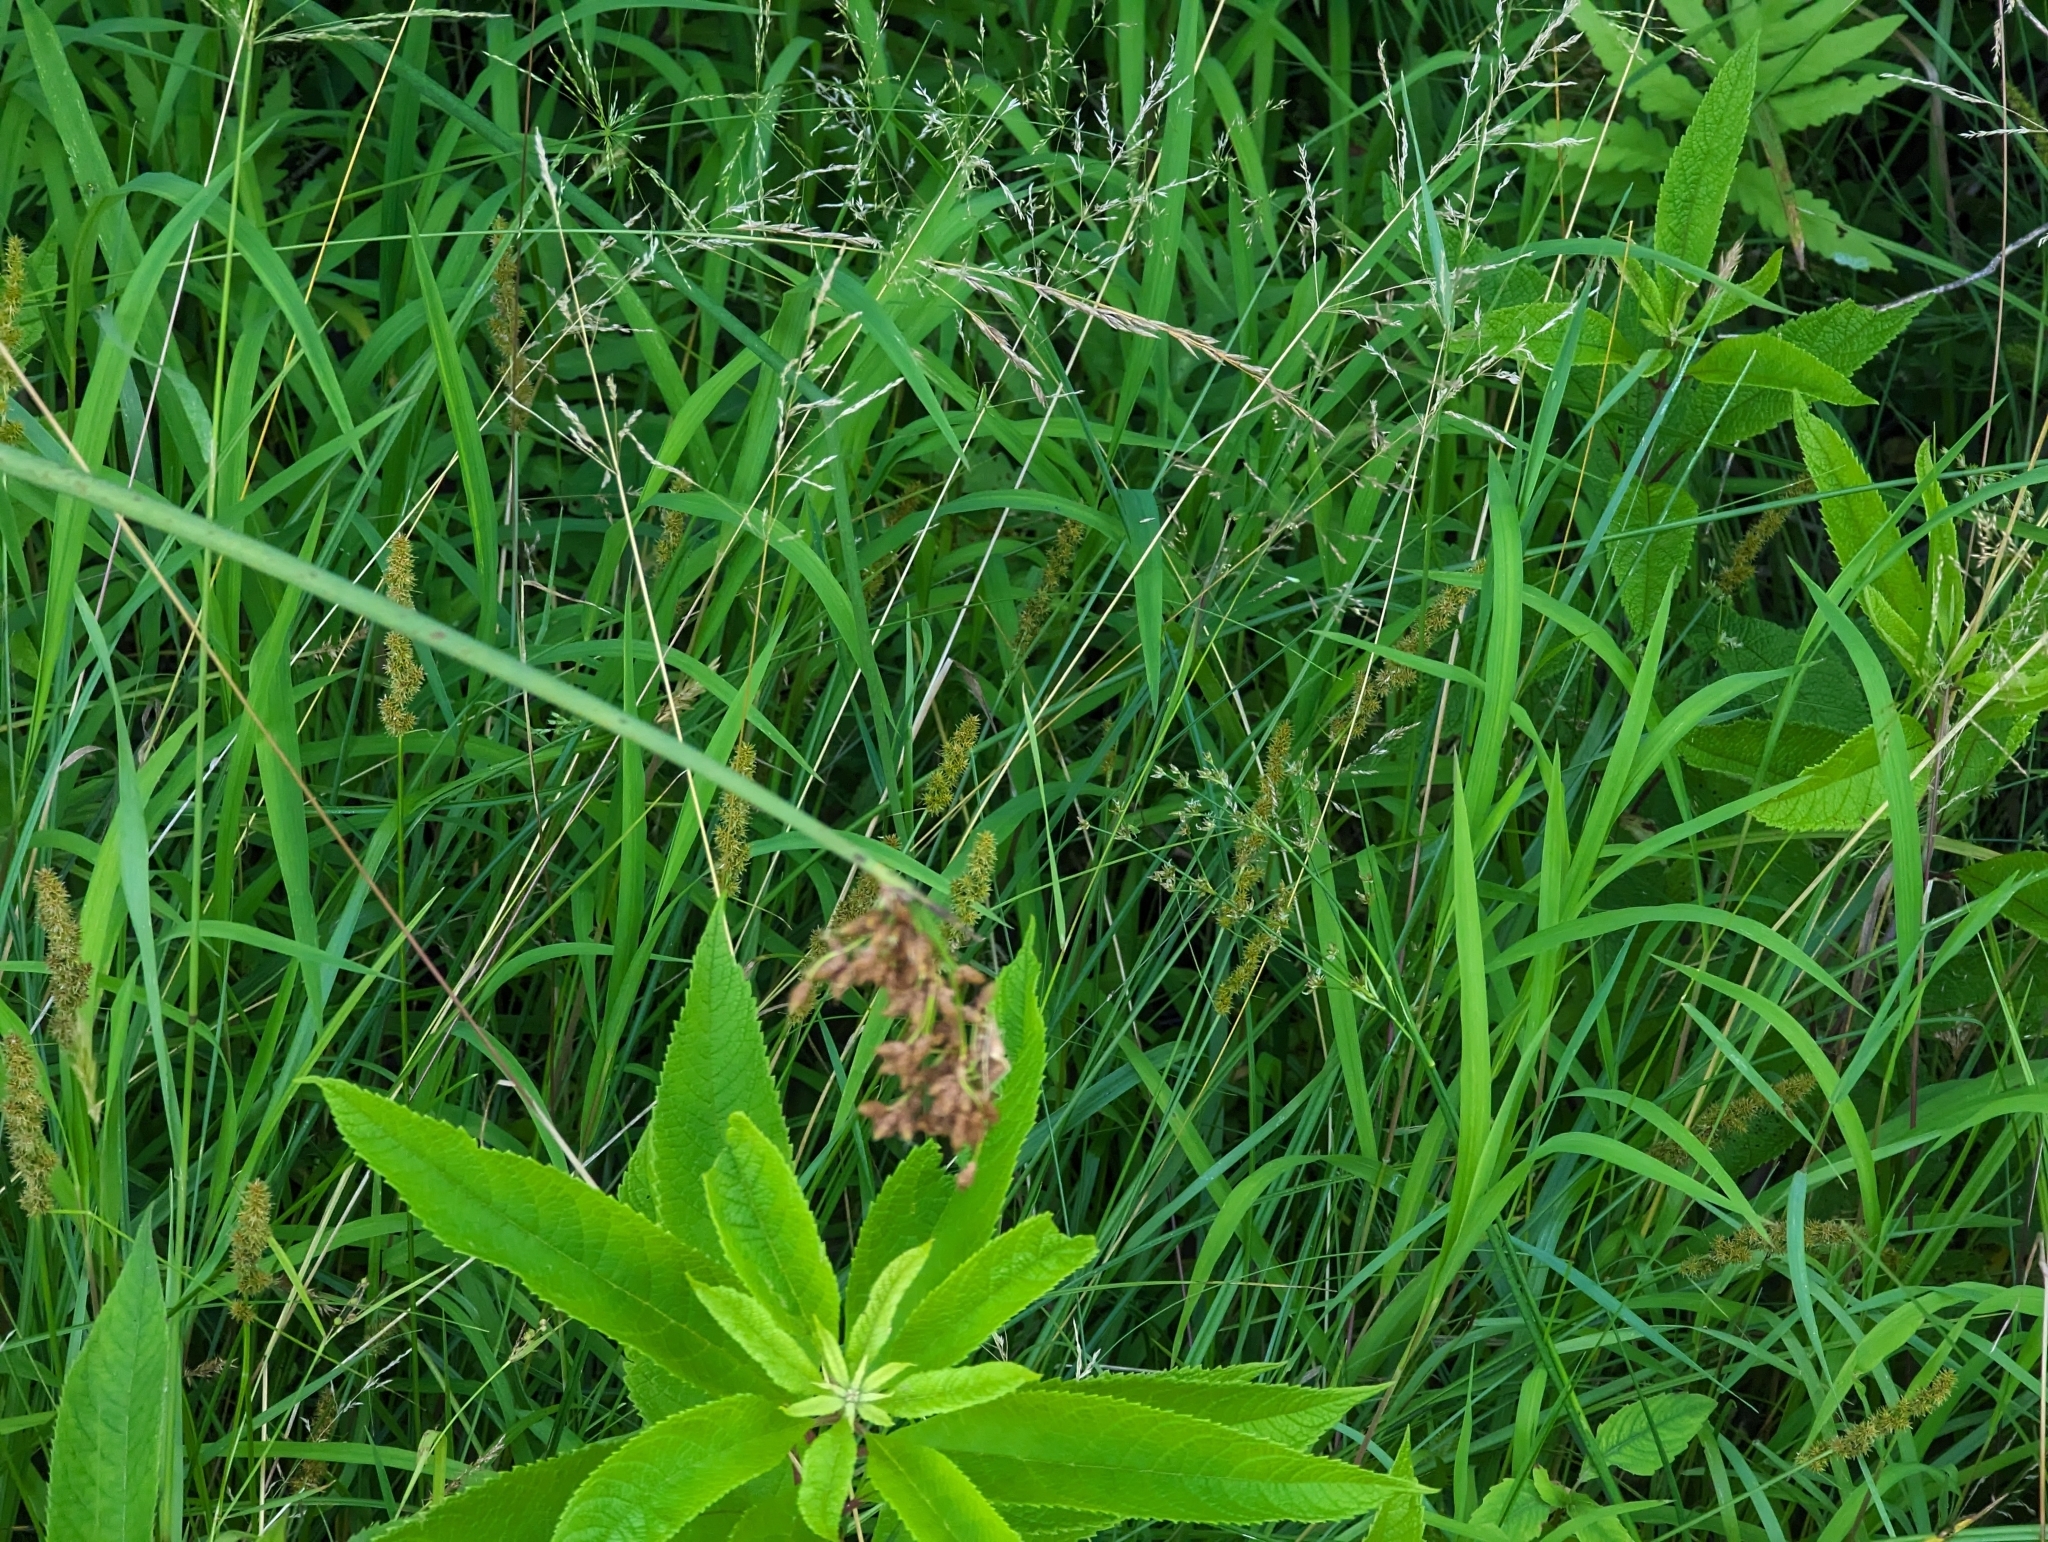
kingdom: Plantae
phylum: Tracheophyta
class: Liliopsida
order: Poales
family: Cyperaceae
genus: Schoenoplectus
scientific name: Schoenoplectus tabernaemontani
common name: Grey club-rush
